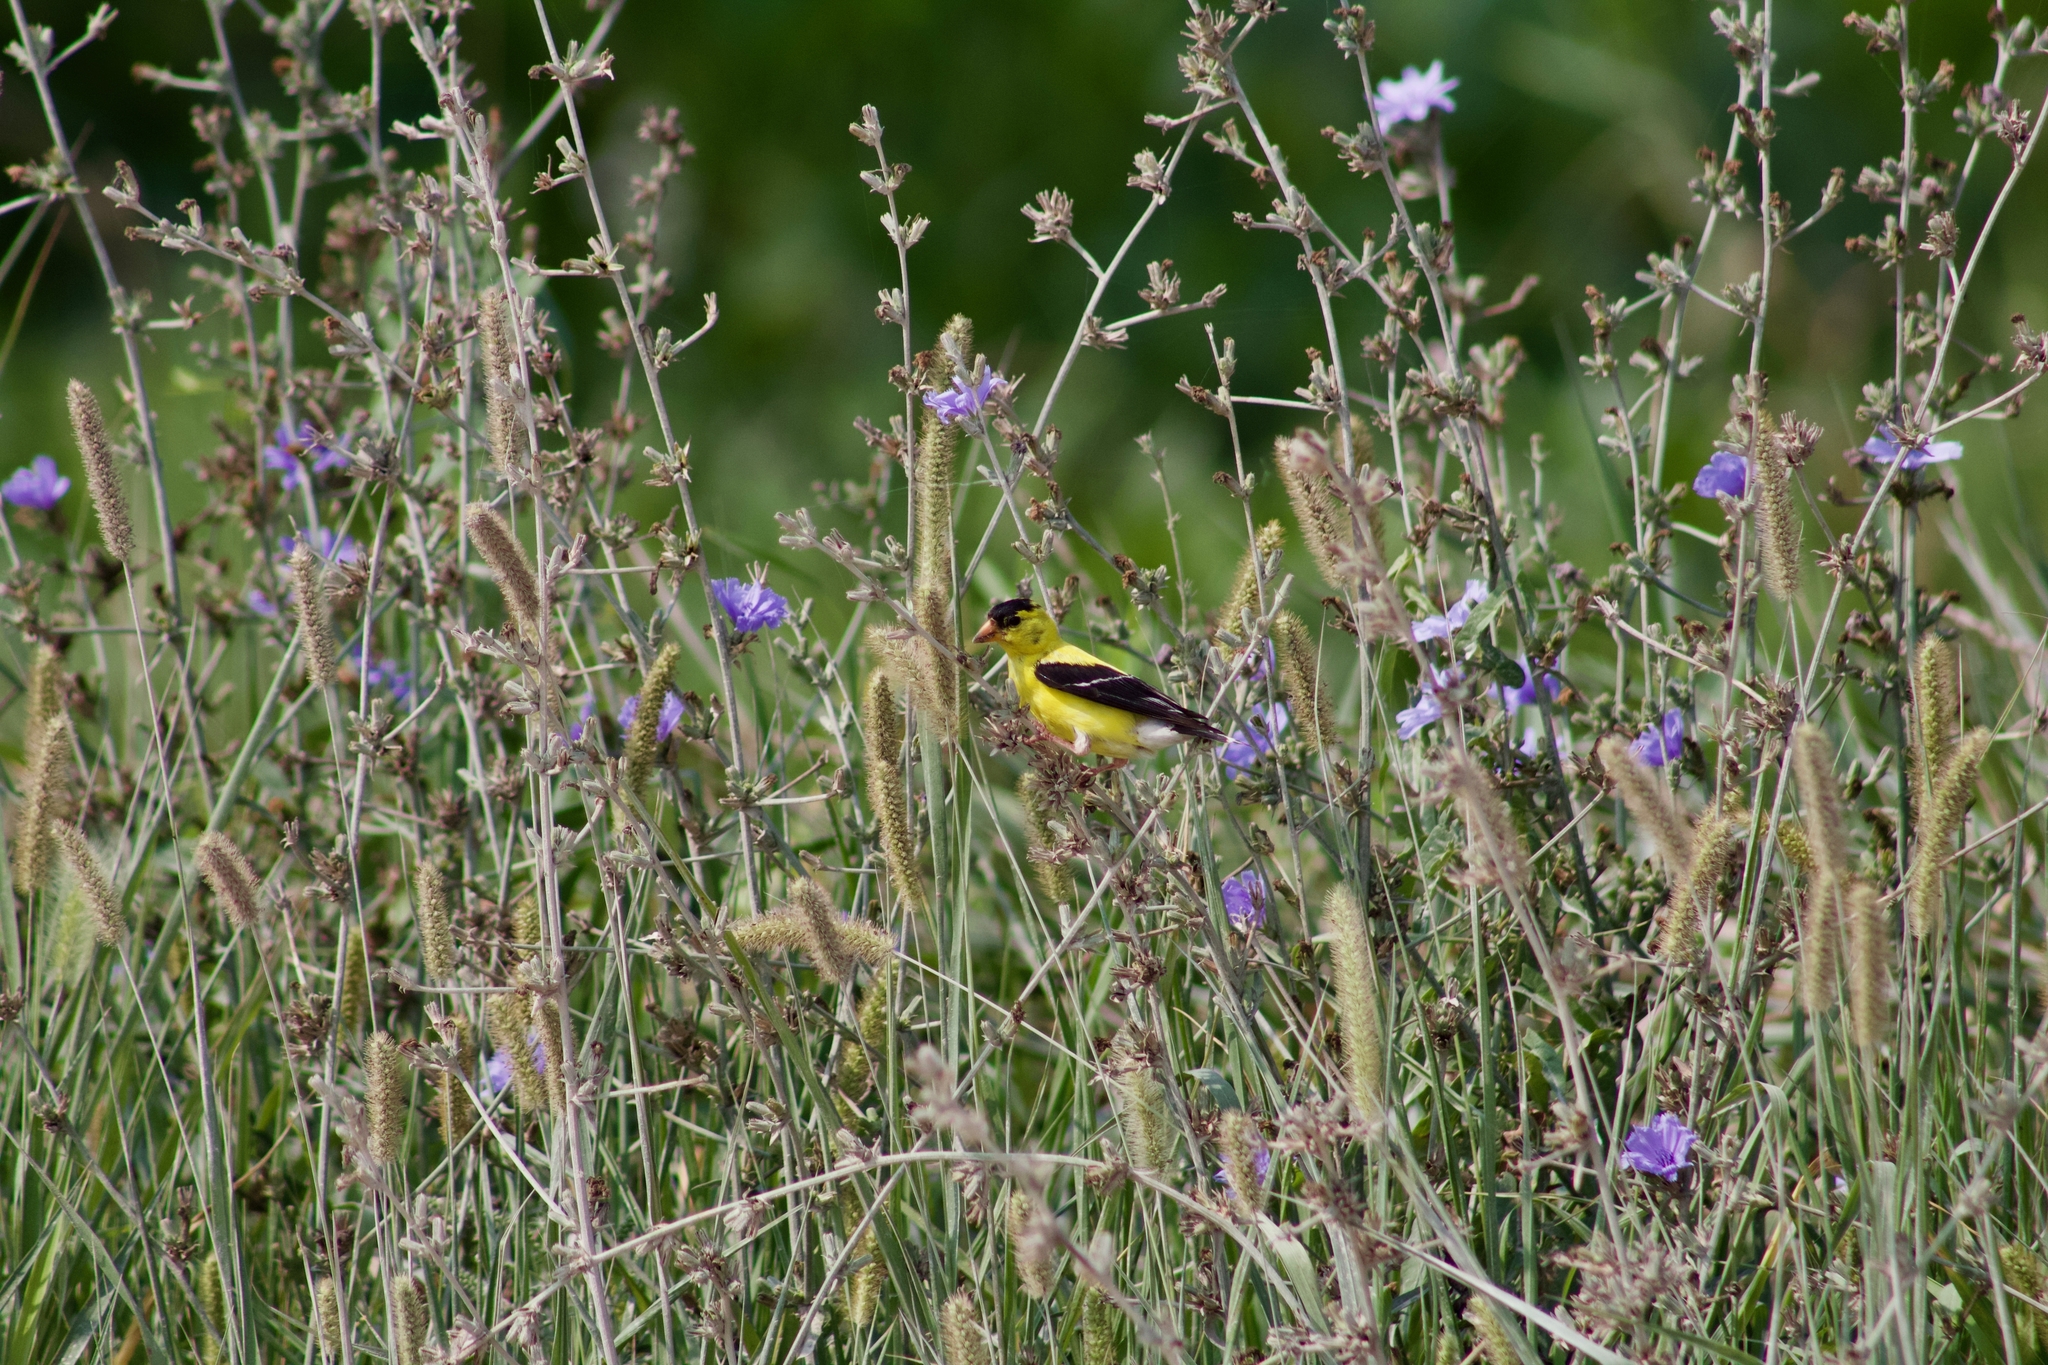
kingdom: Animalia
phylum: Chordata
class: Aves
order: Passeriformes
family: Fringillidae
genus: Spinus
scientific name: Spinus tristis
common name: American goldfinch
